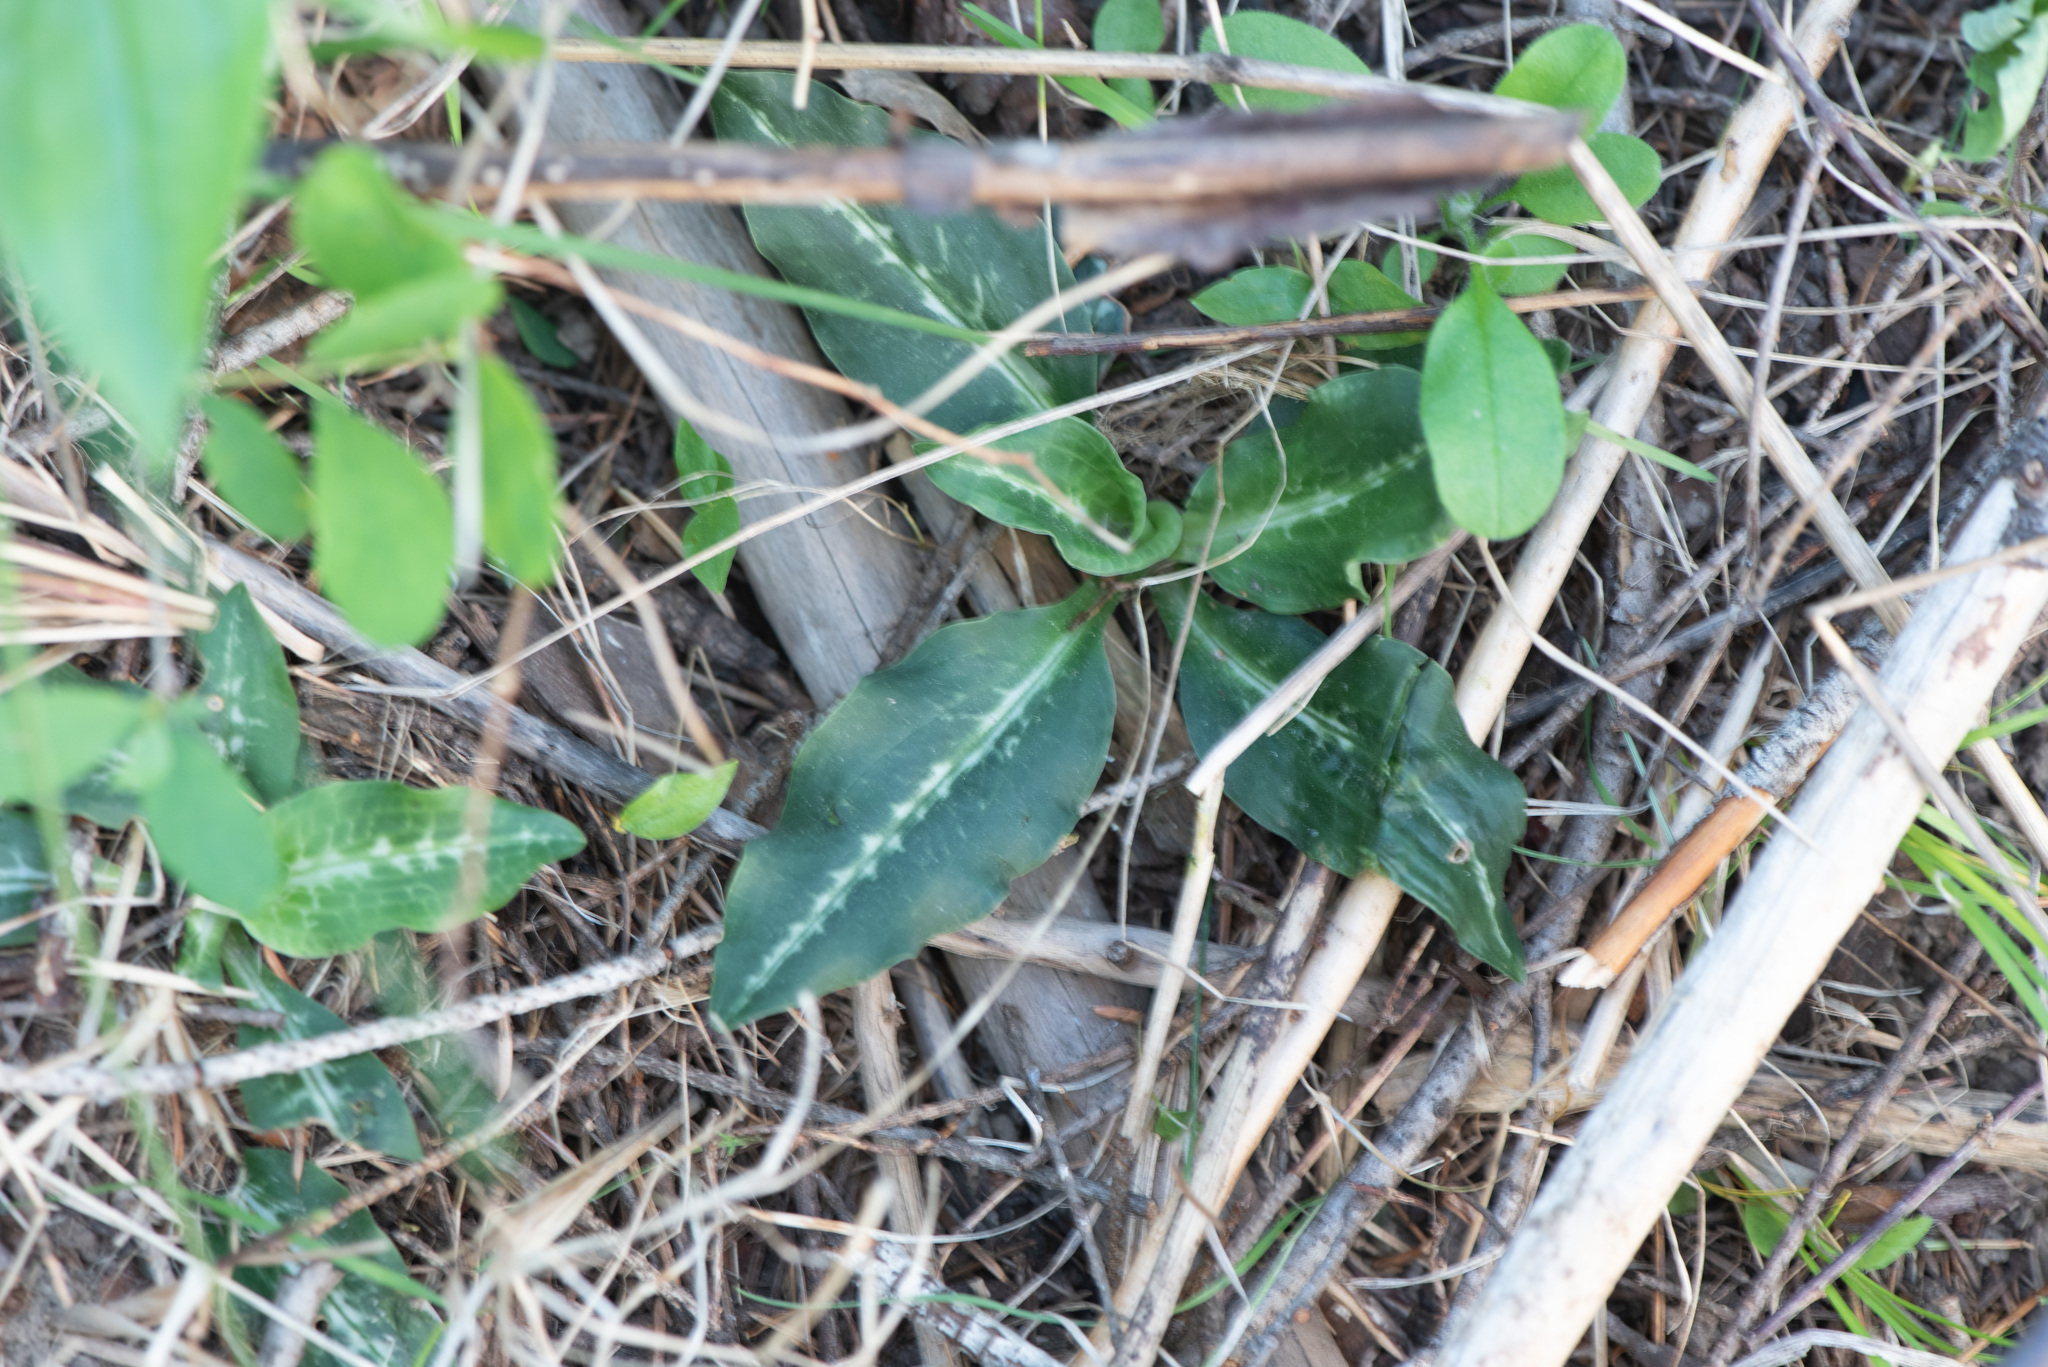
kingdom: Plantae
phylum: Tracheophyta
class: Liliopsida
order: Asparagales
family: Orchidaceae
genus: Goodyera
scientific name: Goodyera oblongifolia
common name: Giant rattlesnake-plantain
